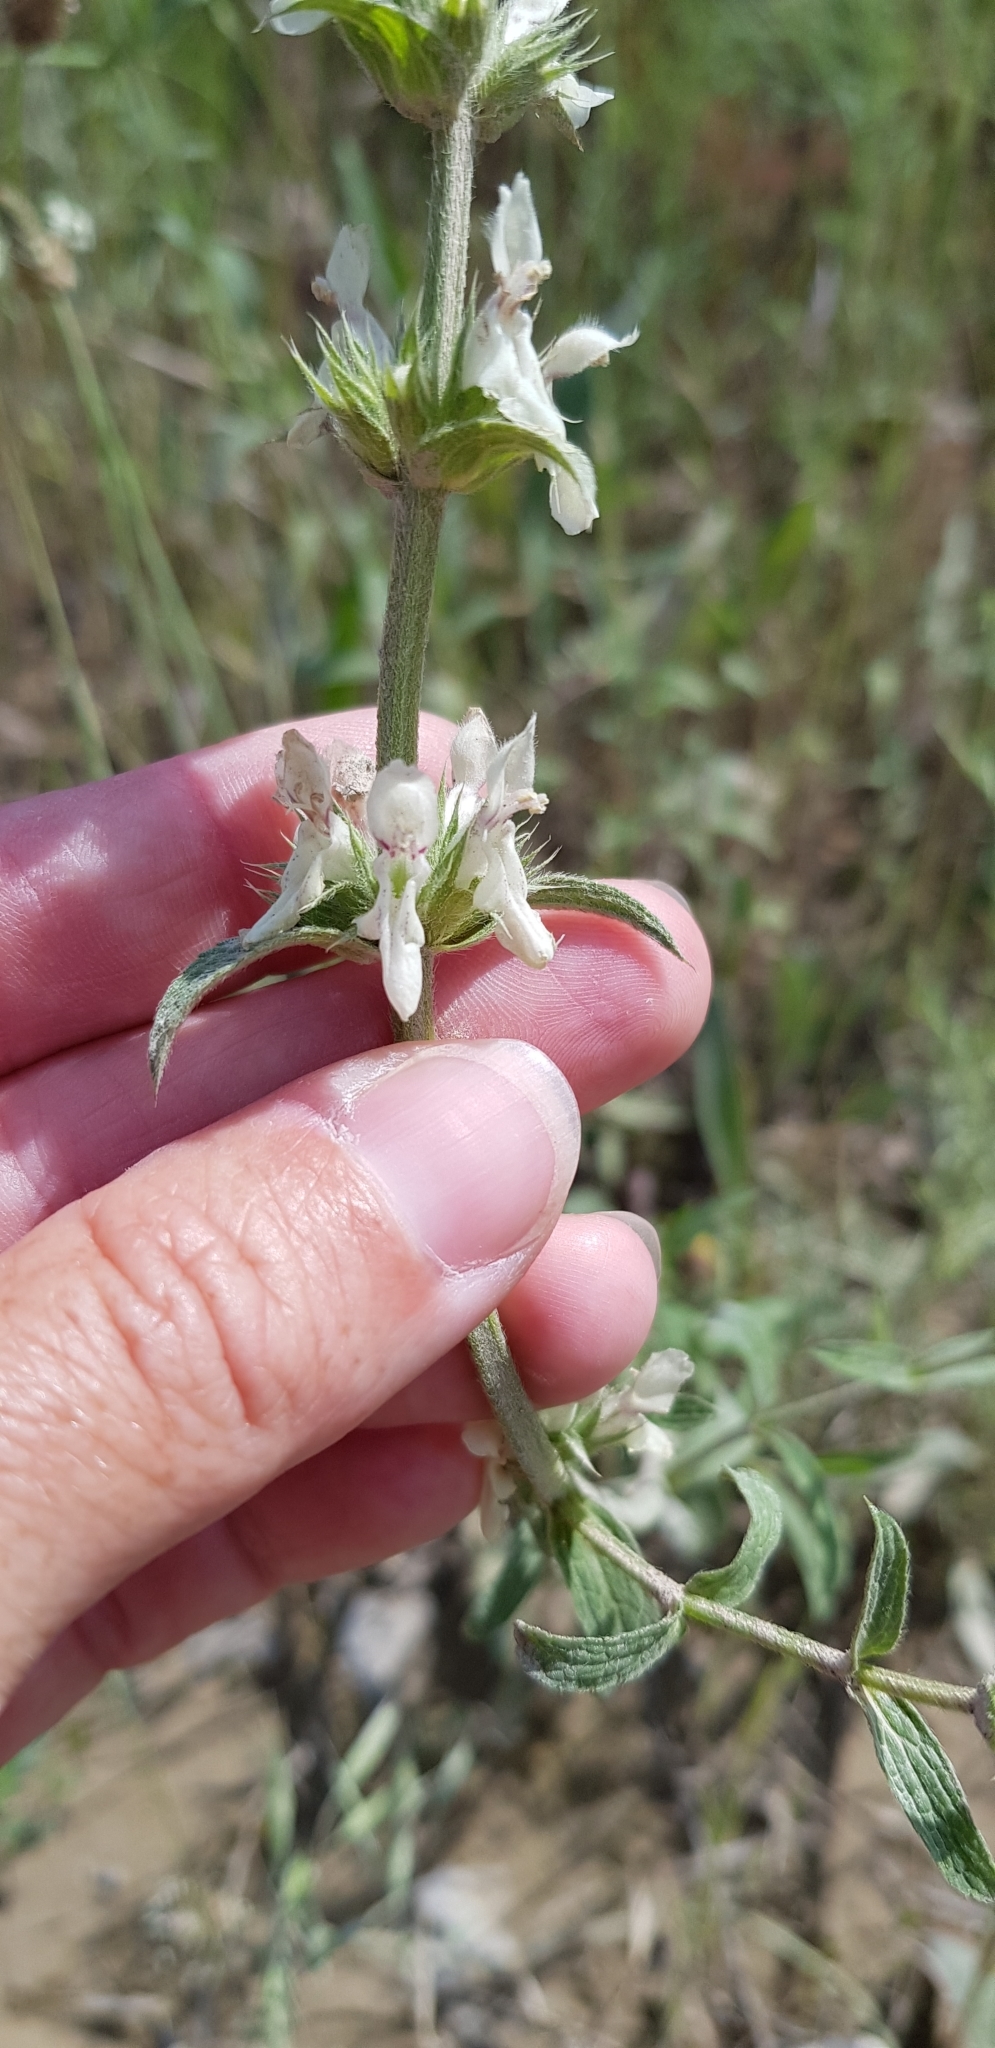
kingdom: Plantae
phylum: Tracheophyta
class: Magnoliopsida
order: Lamiales
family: Lamiaceae
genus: Stachys
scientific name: Stachys atherocalyx
